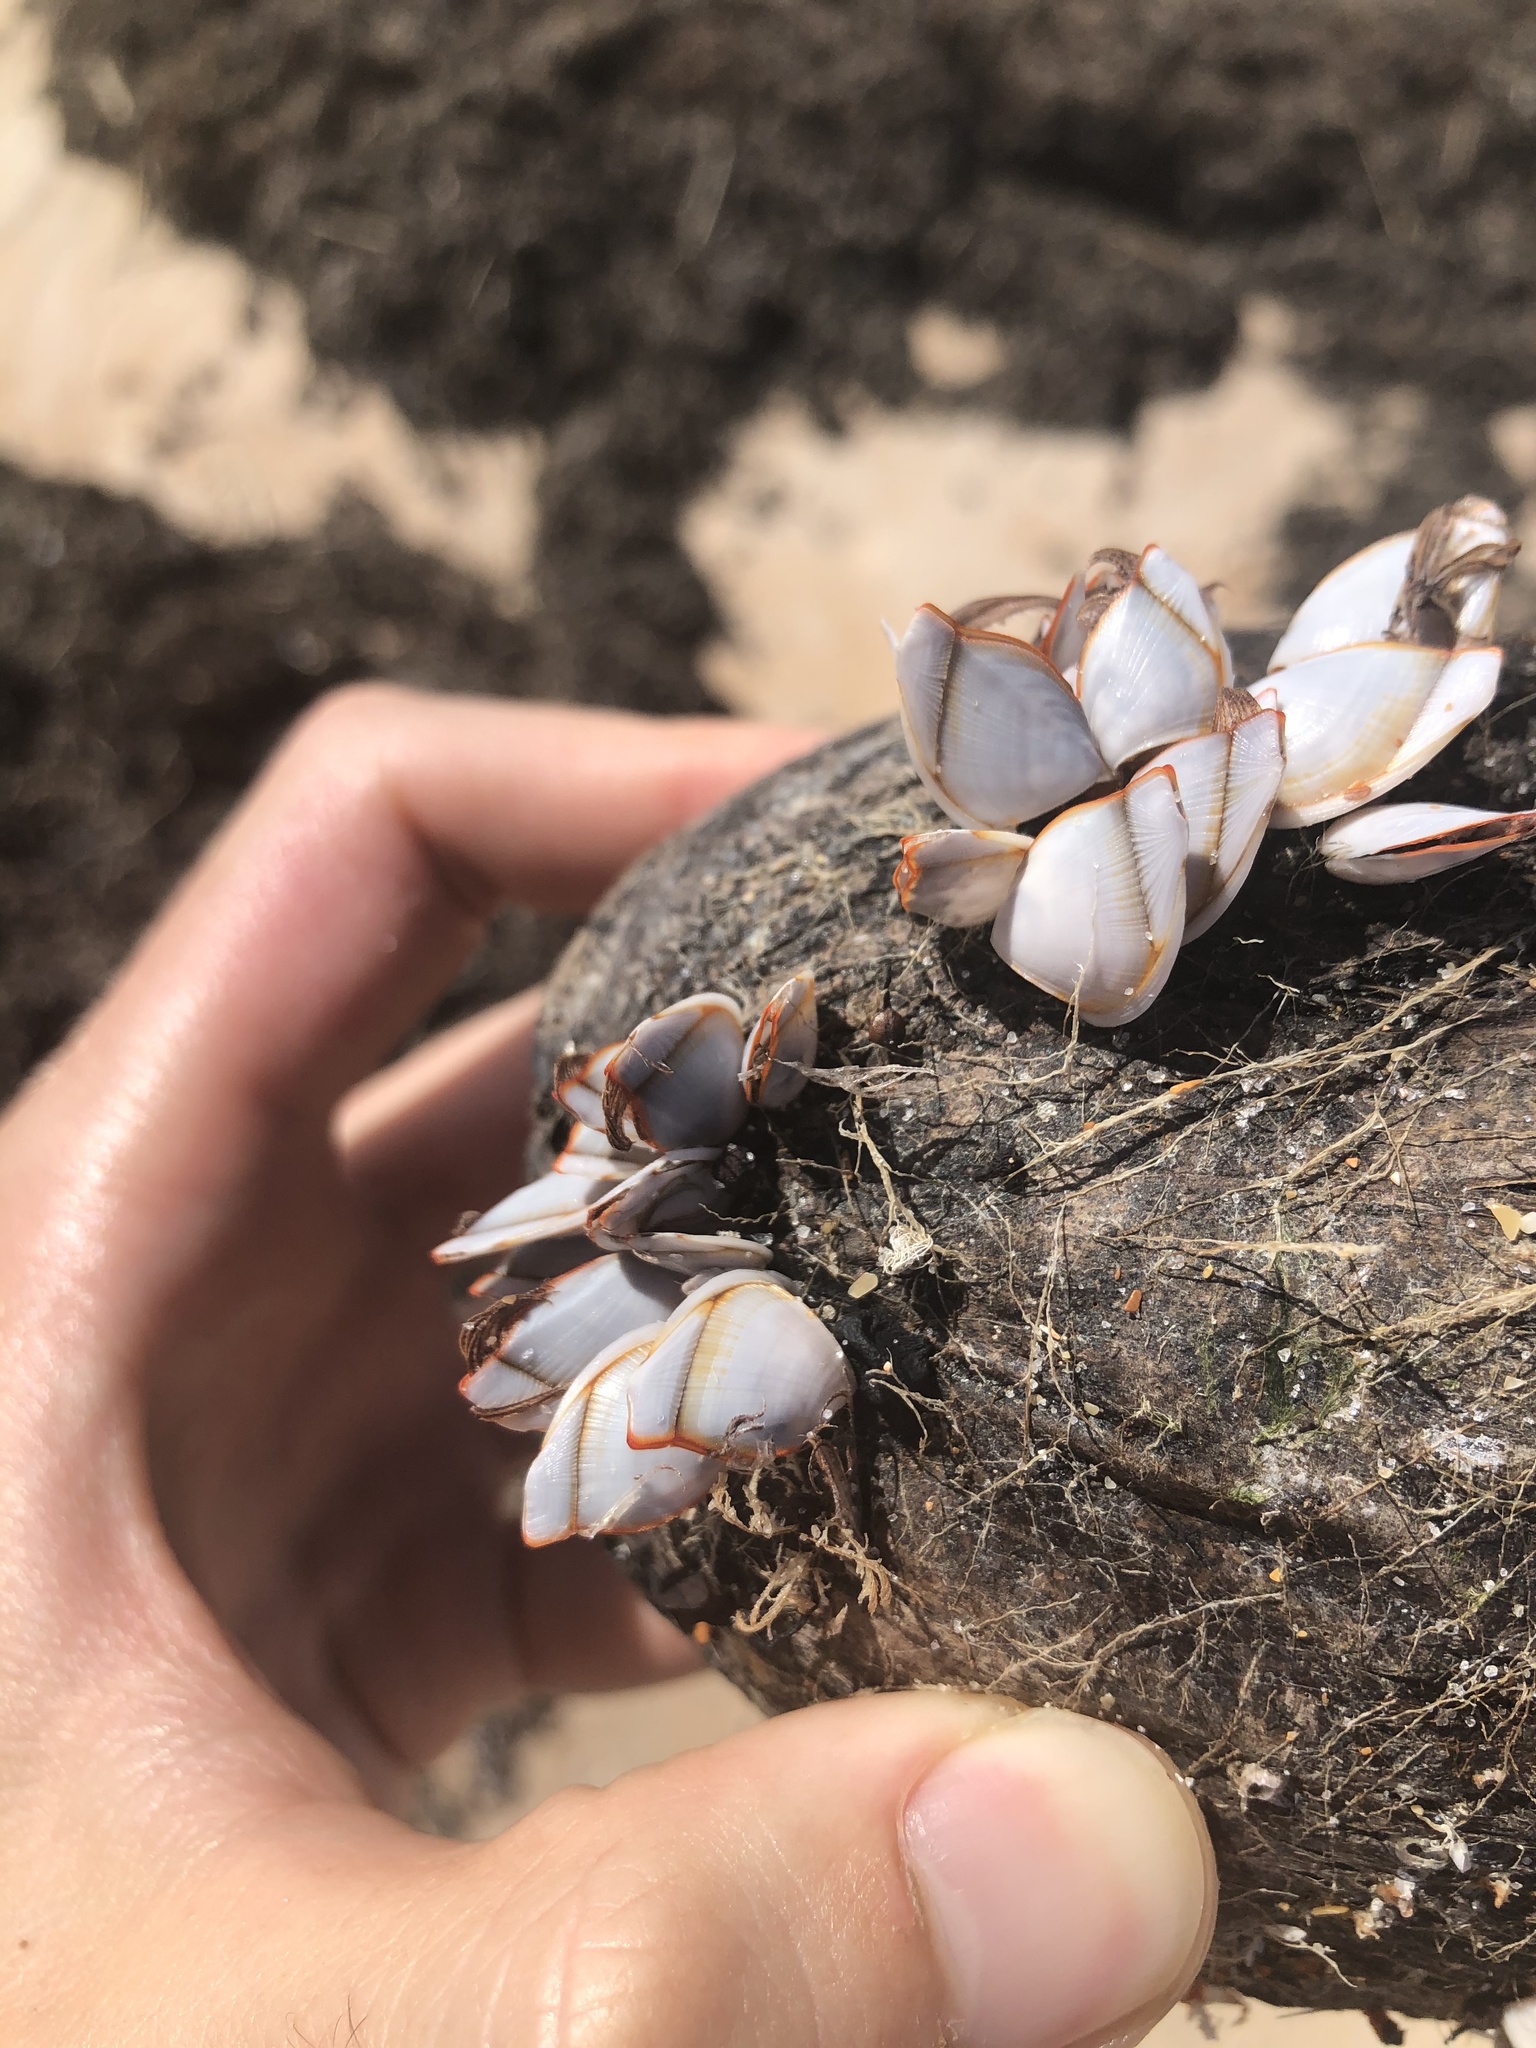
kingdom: Animalia
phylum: Arthropoda
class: Maxillopoda
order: Pedunculata
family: Lepadidae
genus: Lepas
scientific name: Lepas anserifera
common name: Goose barnacle
